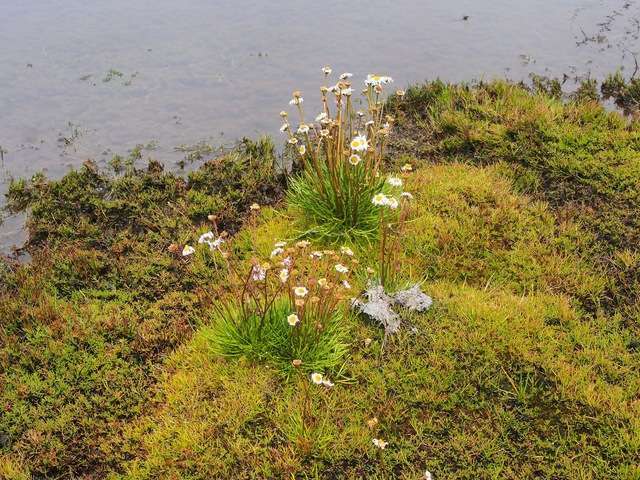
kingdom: Plantae
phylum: Tracheophyta
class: Magnoliopsida
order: Asterales
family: Asteraceae
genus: Brachyscome
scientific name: Brachyscome obovata
